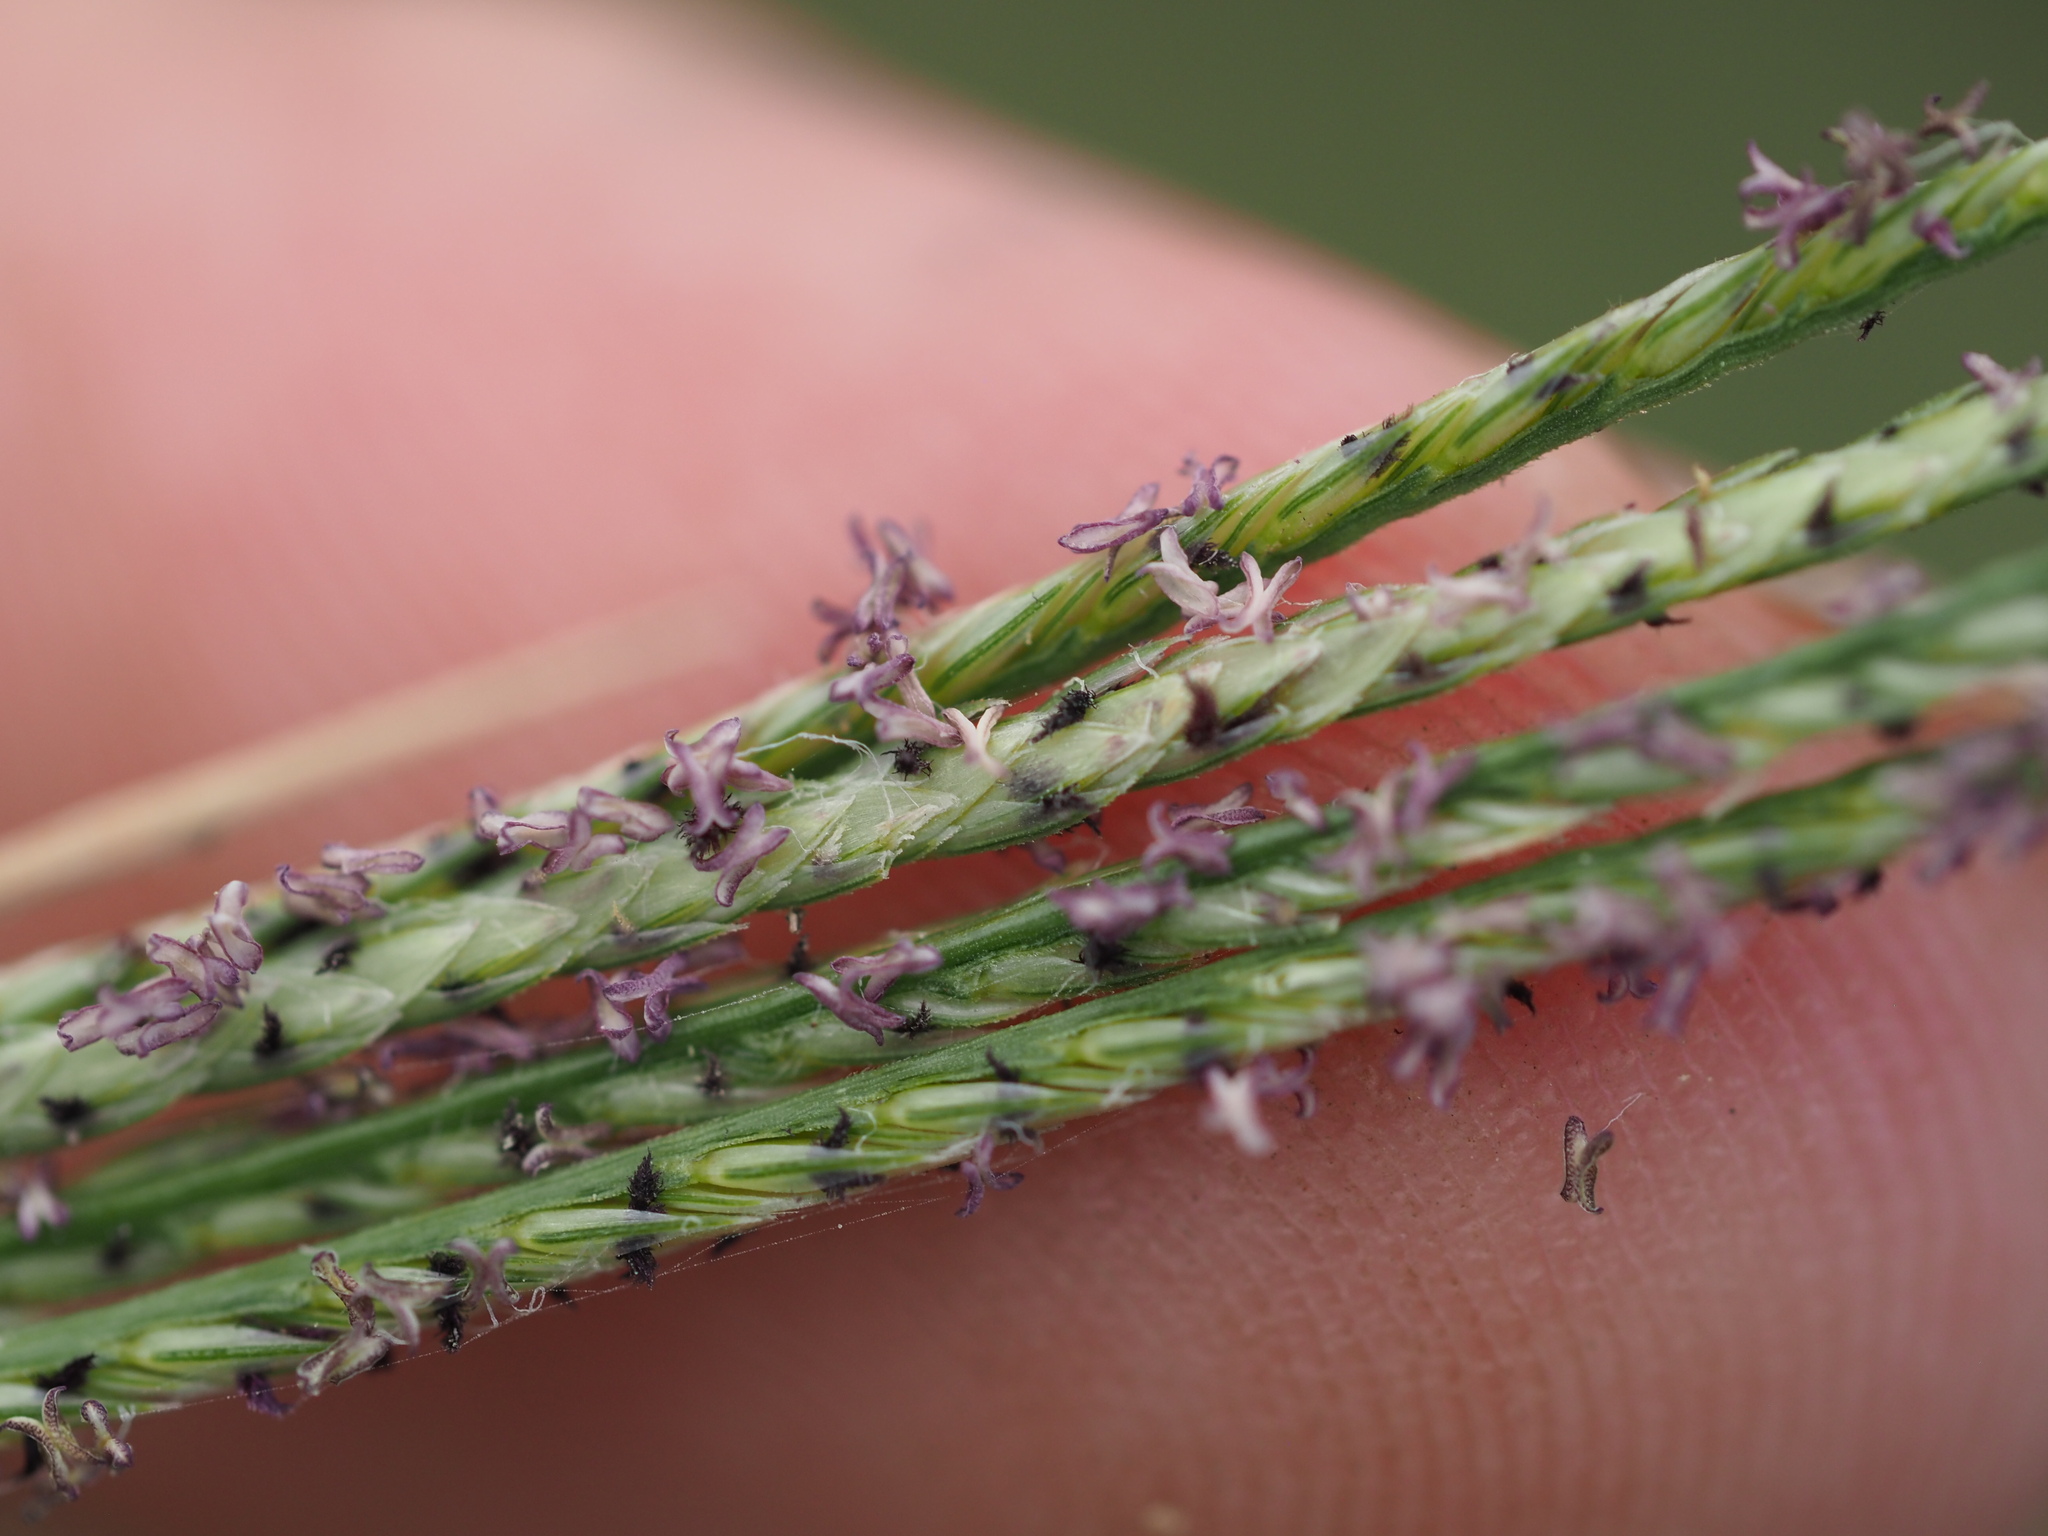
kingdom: Plantae
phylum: Tracheophyta
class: Liliopsida
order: Poales
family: Poaceae
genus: Cynodon
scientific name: Cynodon nlemfuensis
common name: African bermudagrass
